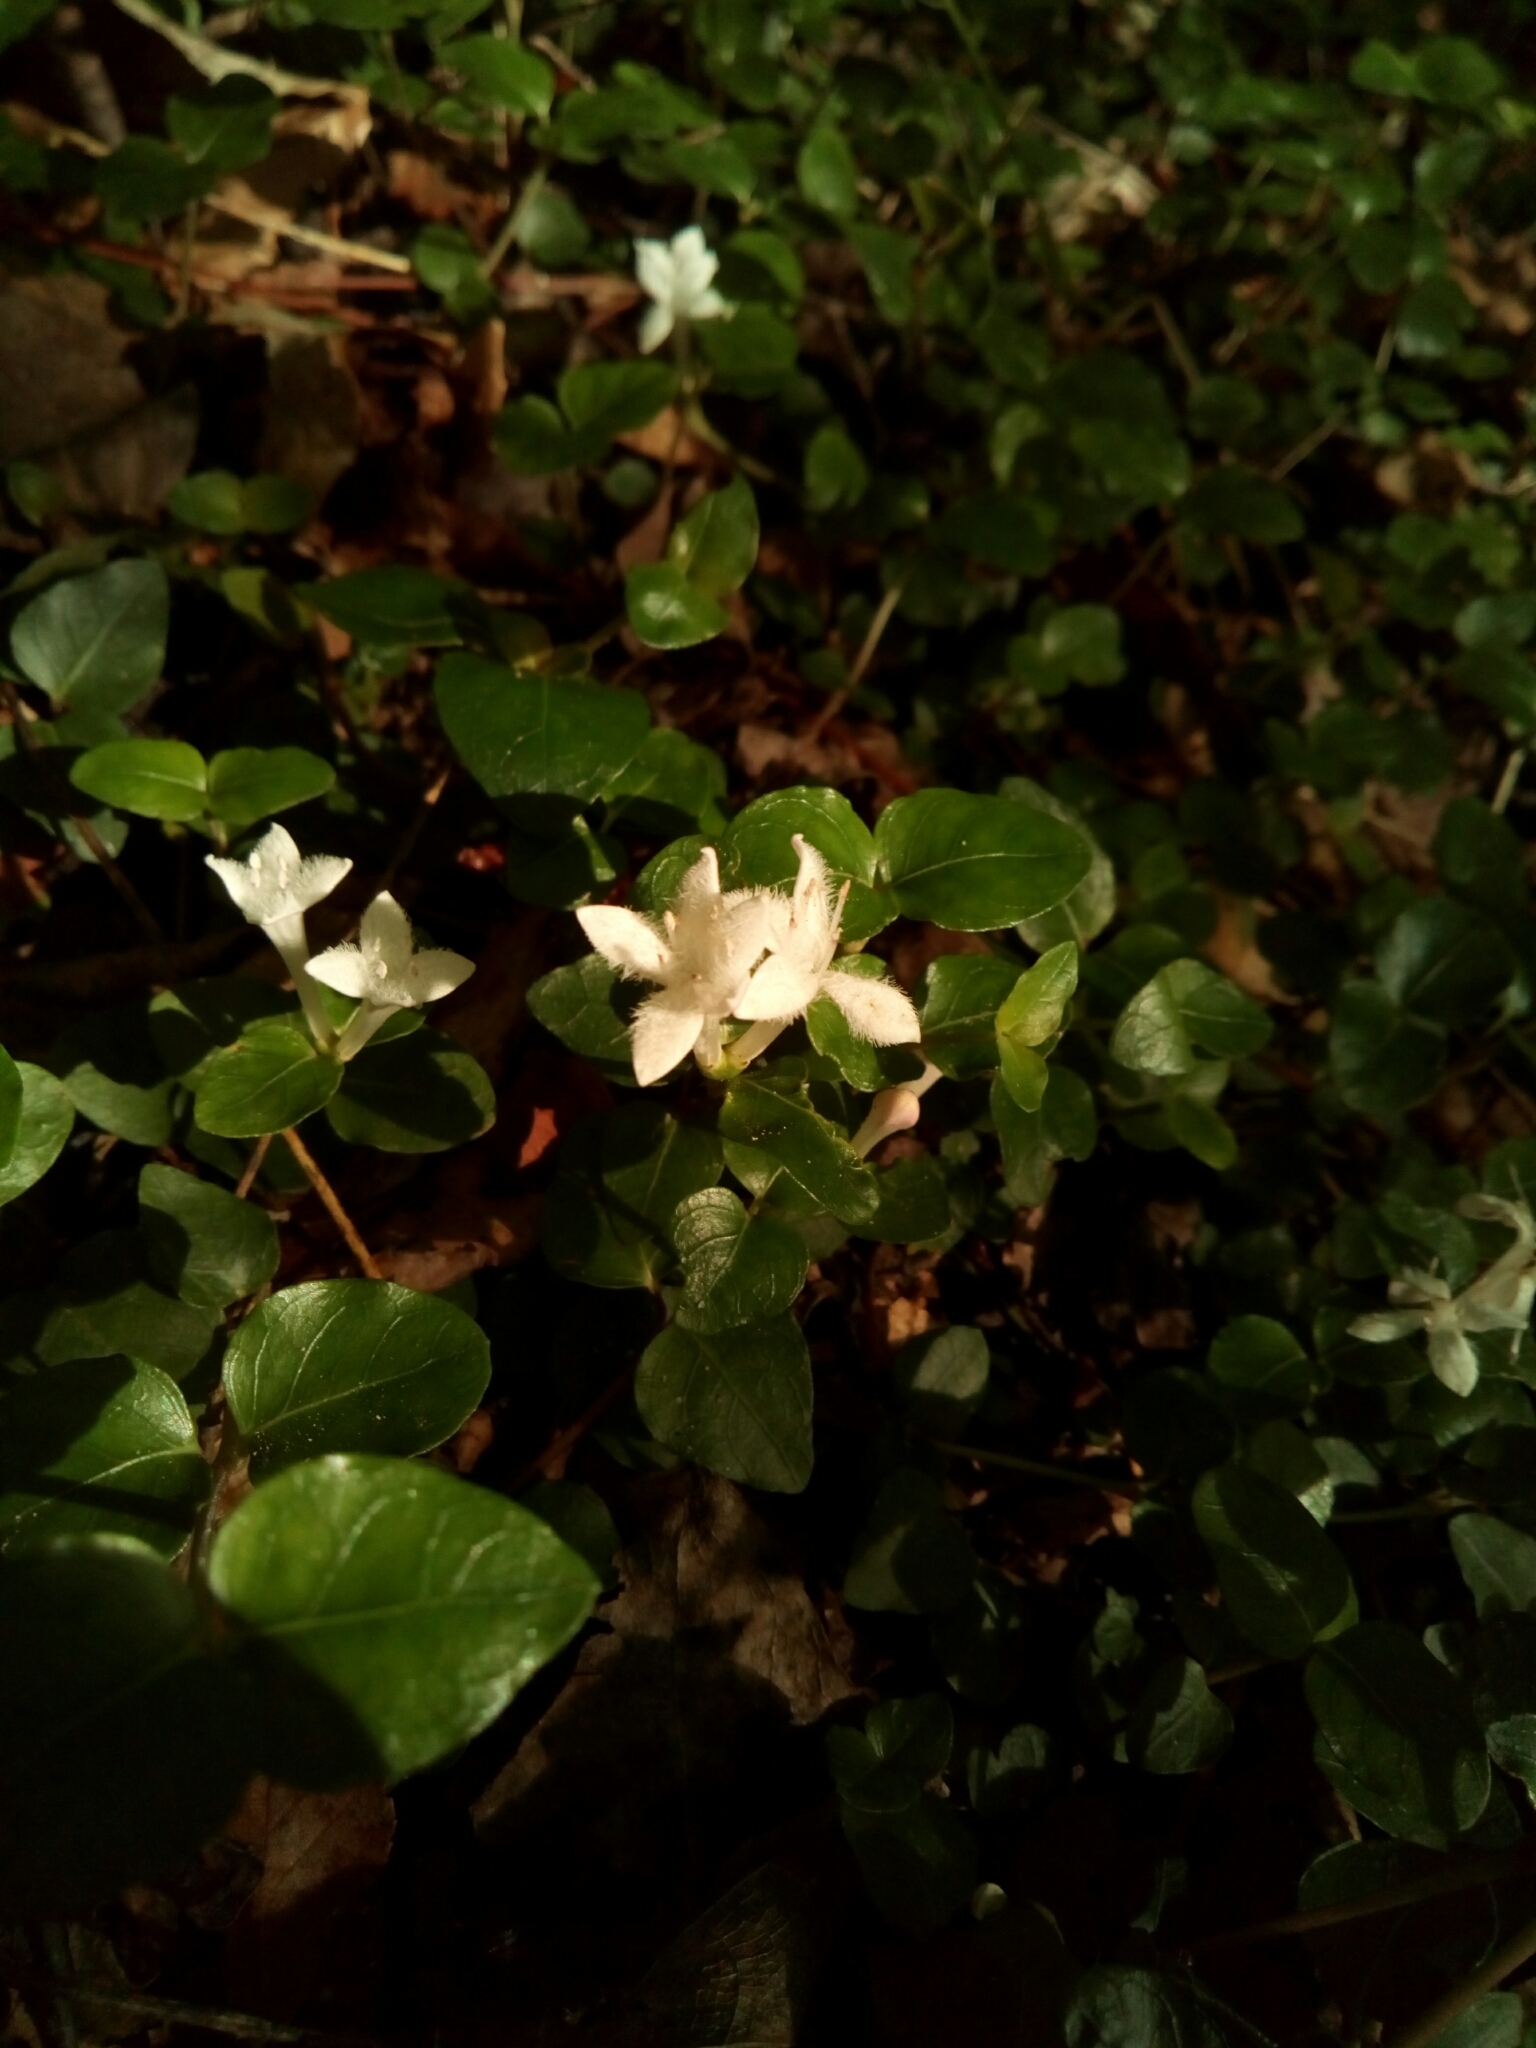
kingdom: Plantae
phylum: Tracheophyta
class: Magnoliopsida
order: Gentianales
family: Rubiaceae
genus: Mitchella
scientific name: Mitchella repens
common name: Partridge-berry
